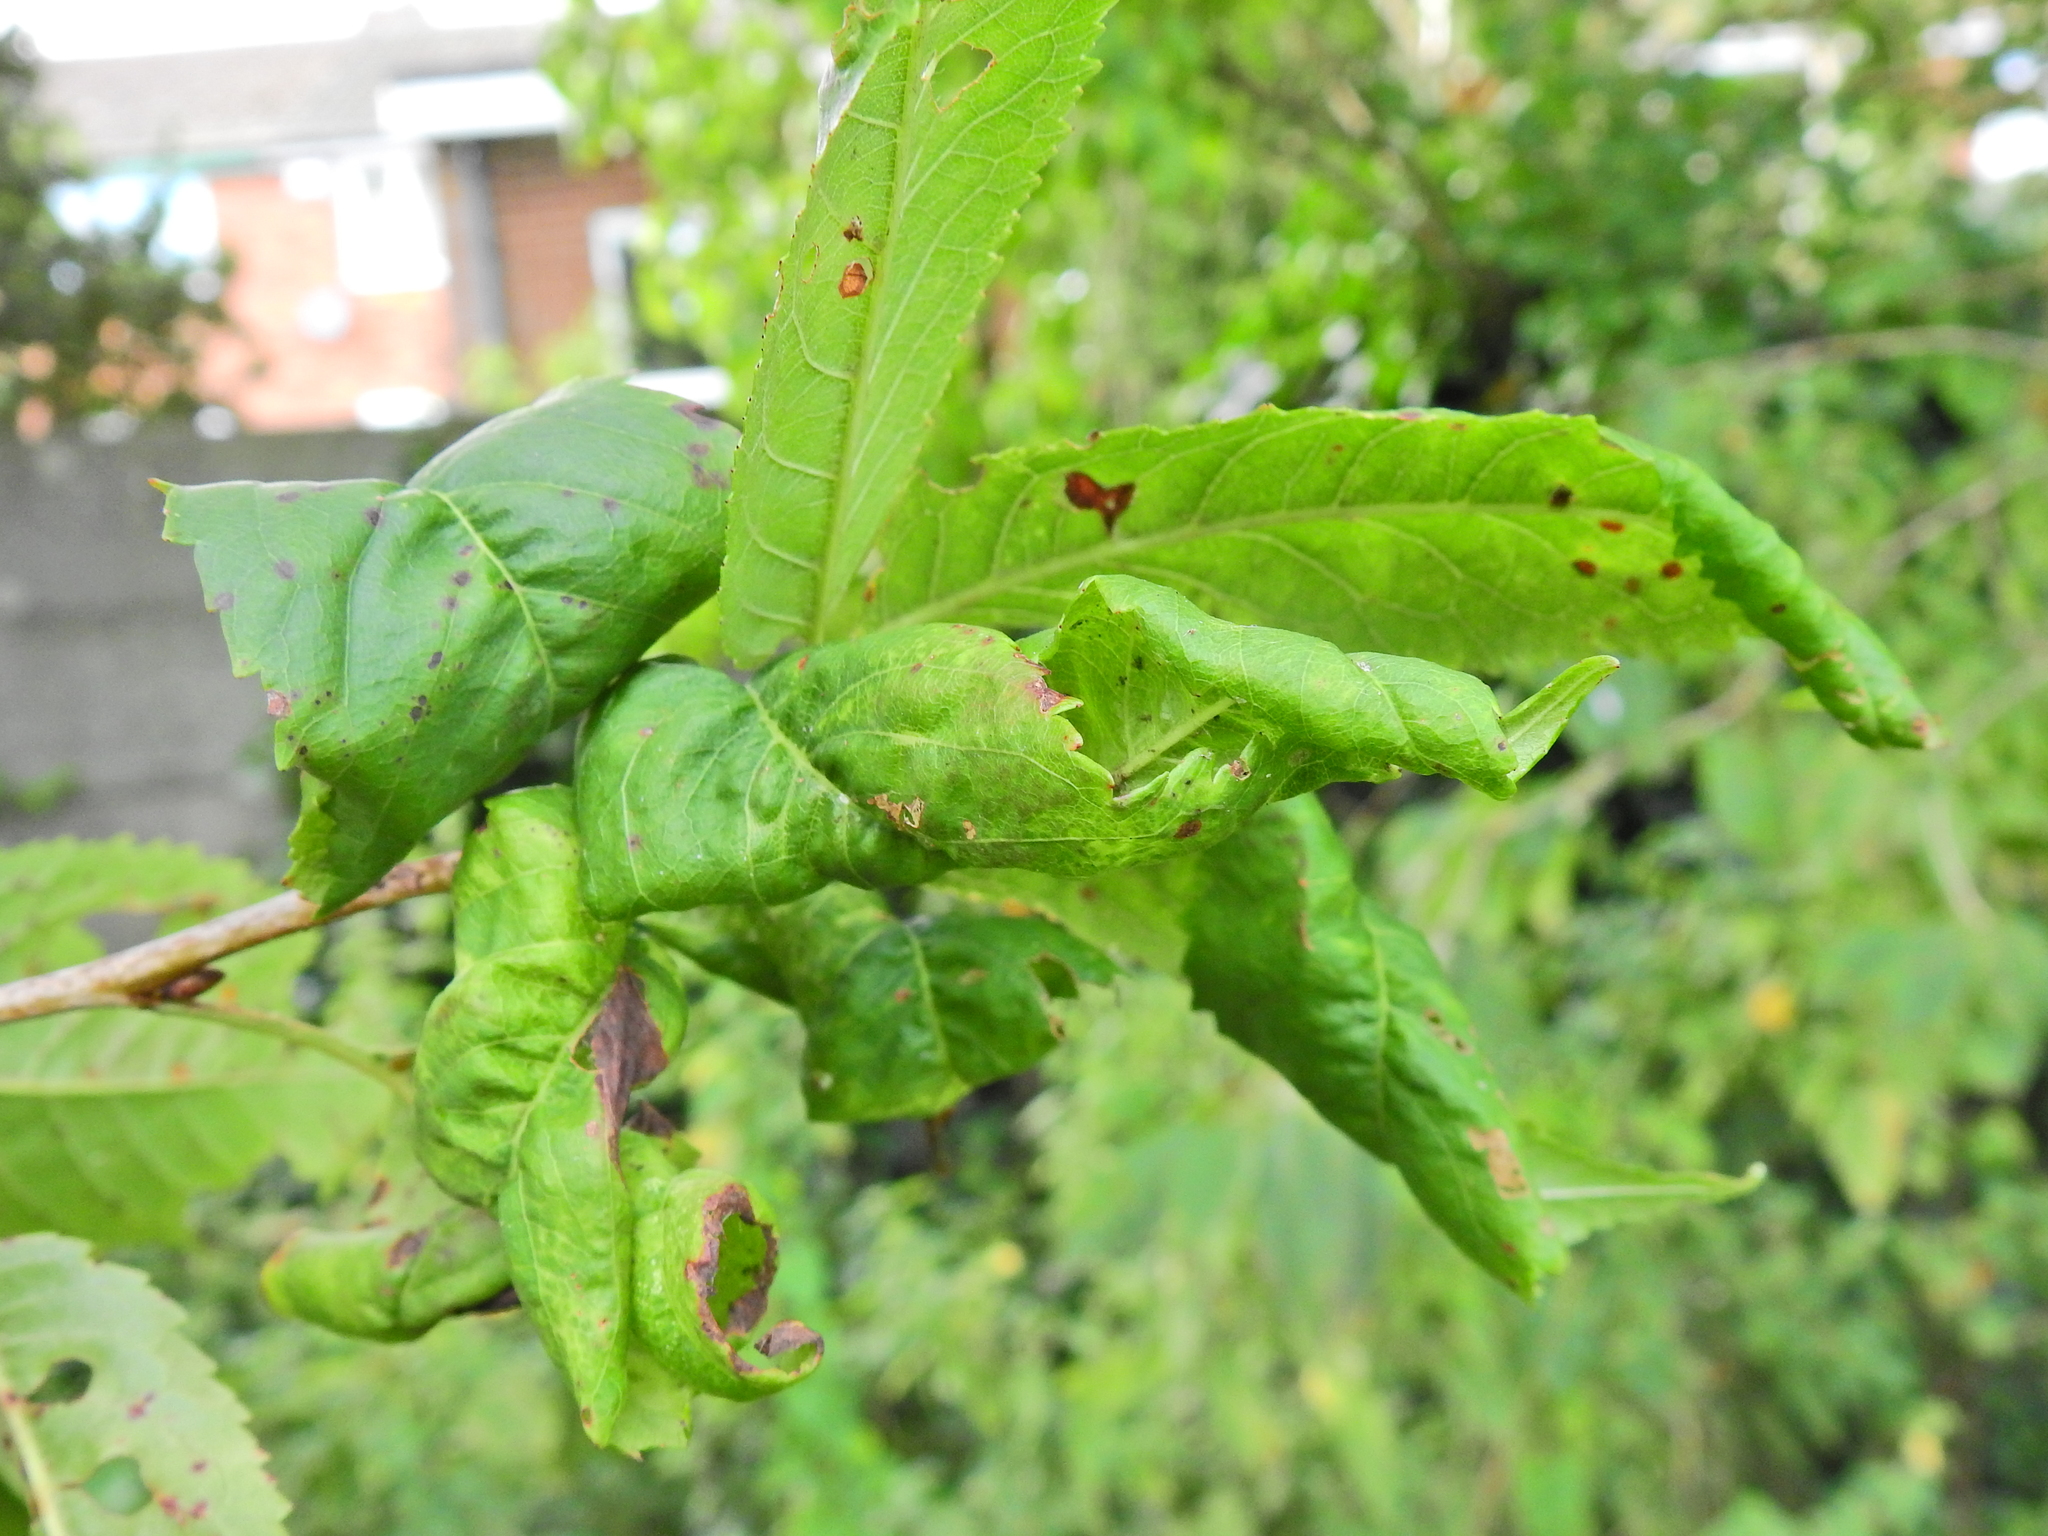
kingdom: Animalia
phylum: Arthropoda
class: Insecta
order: Hemiptera
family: Aphididae
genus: Myzus
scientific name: Myzus cerasi
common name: Black cherry aphid
